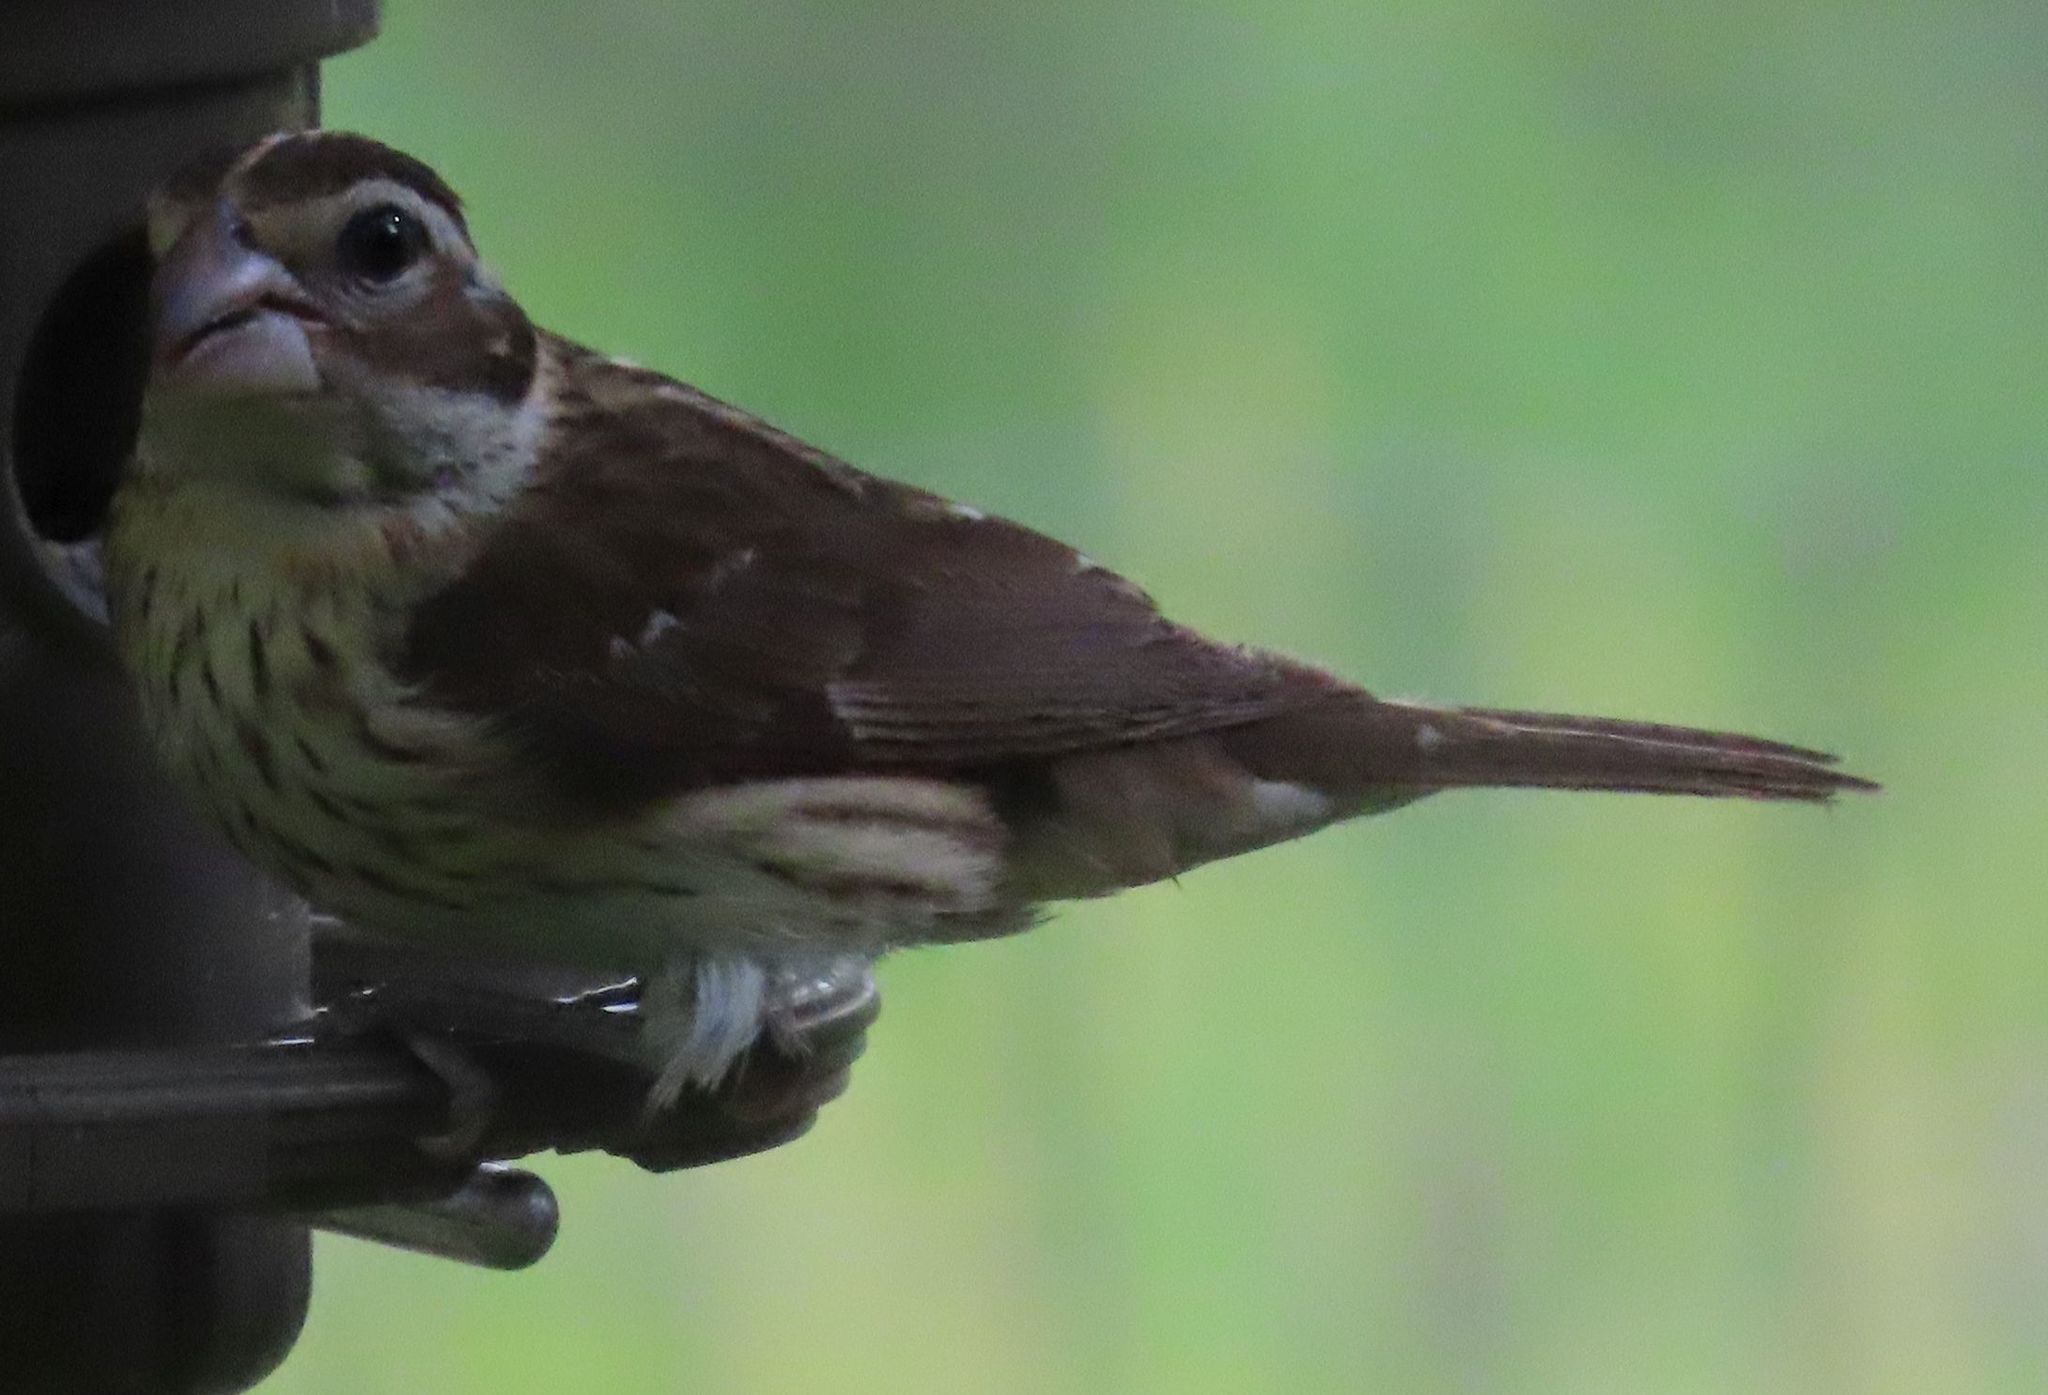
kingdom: Animalia
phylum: Chordata
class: Aves
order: Passeriformes
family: Cardinalidae
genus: Pheucticus
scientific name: Pheucticus ludovicianus
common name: Rose-breasted grosbeak
